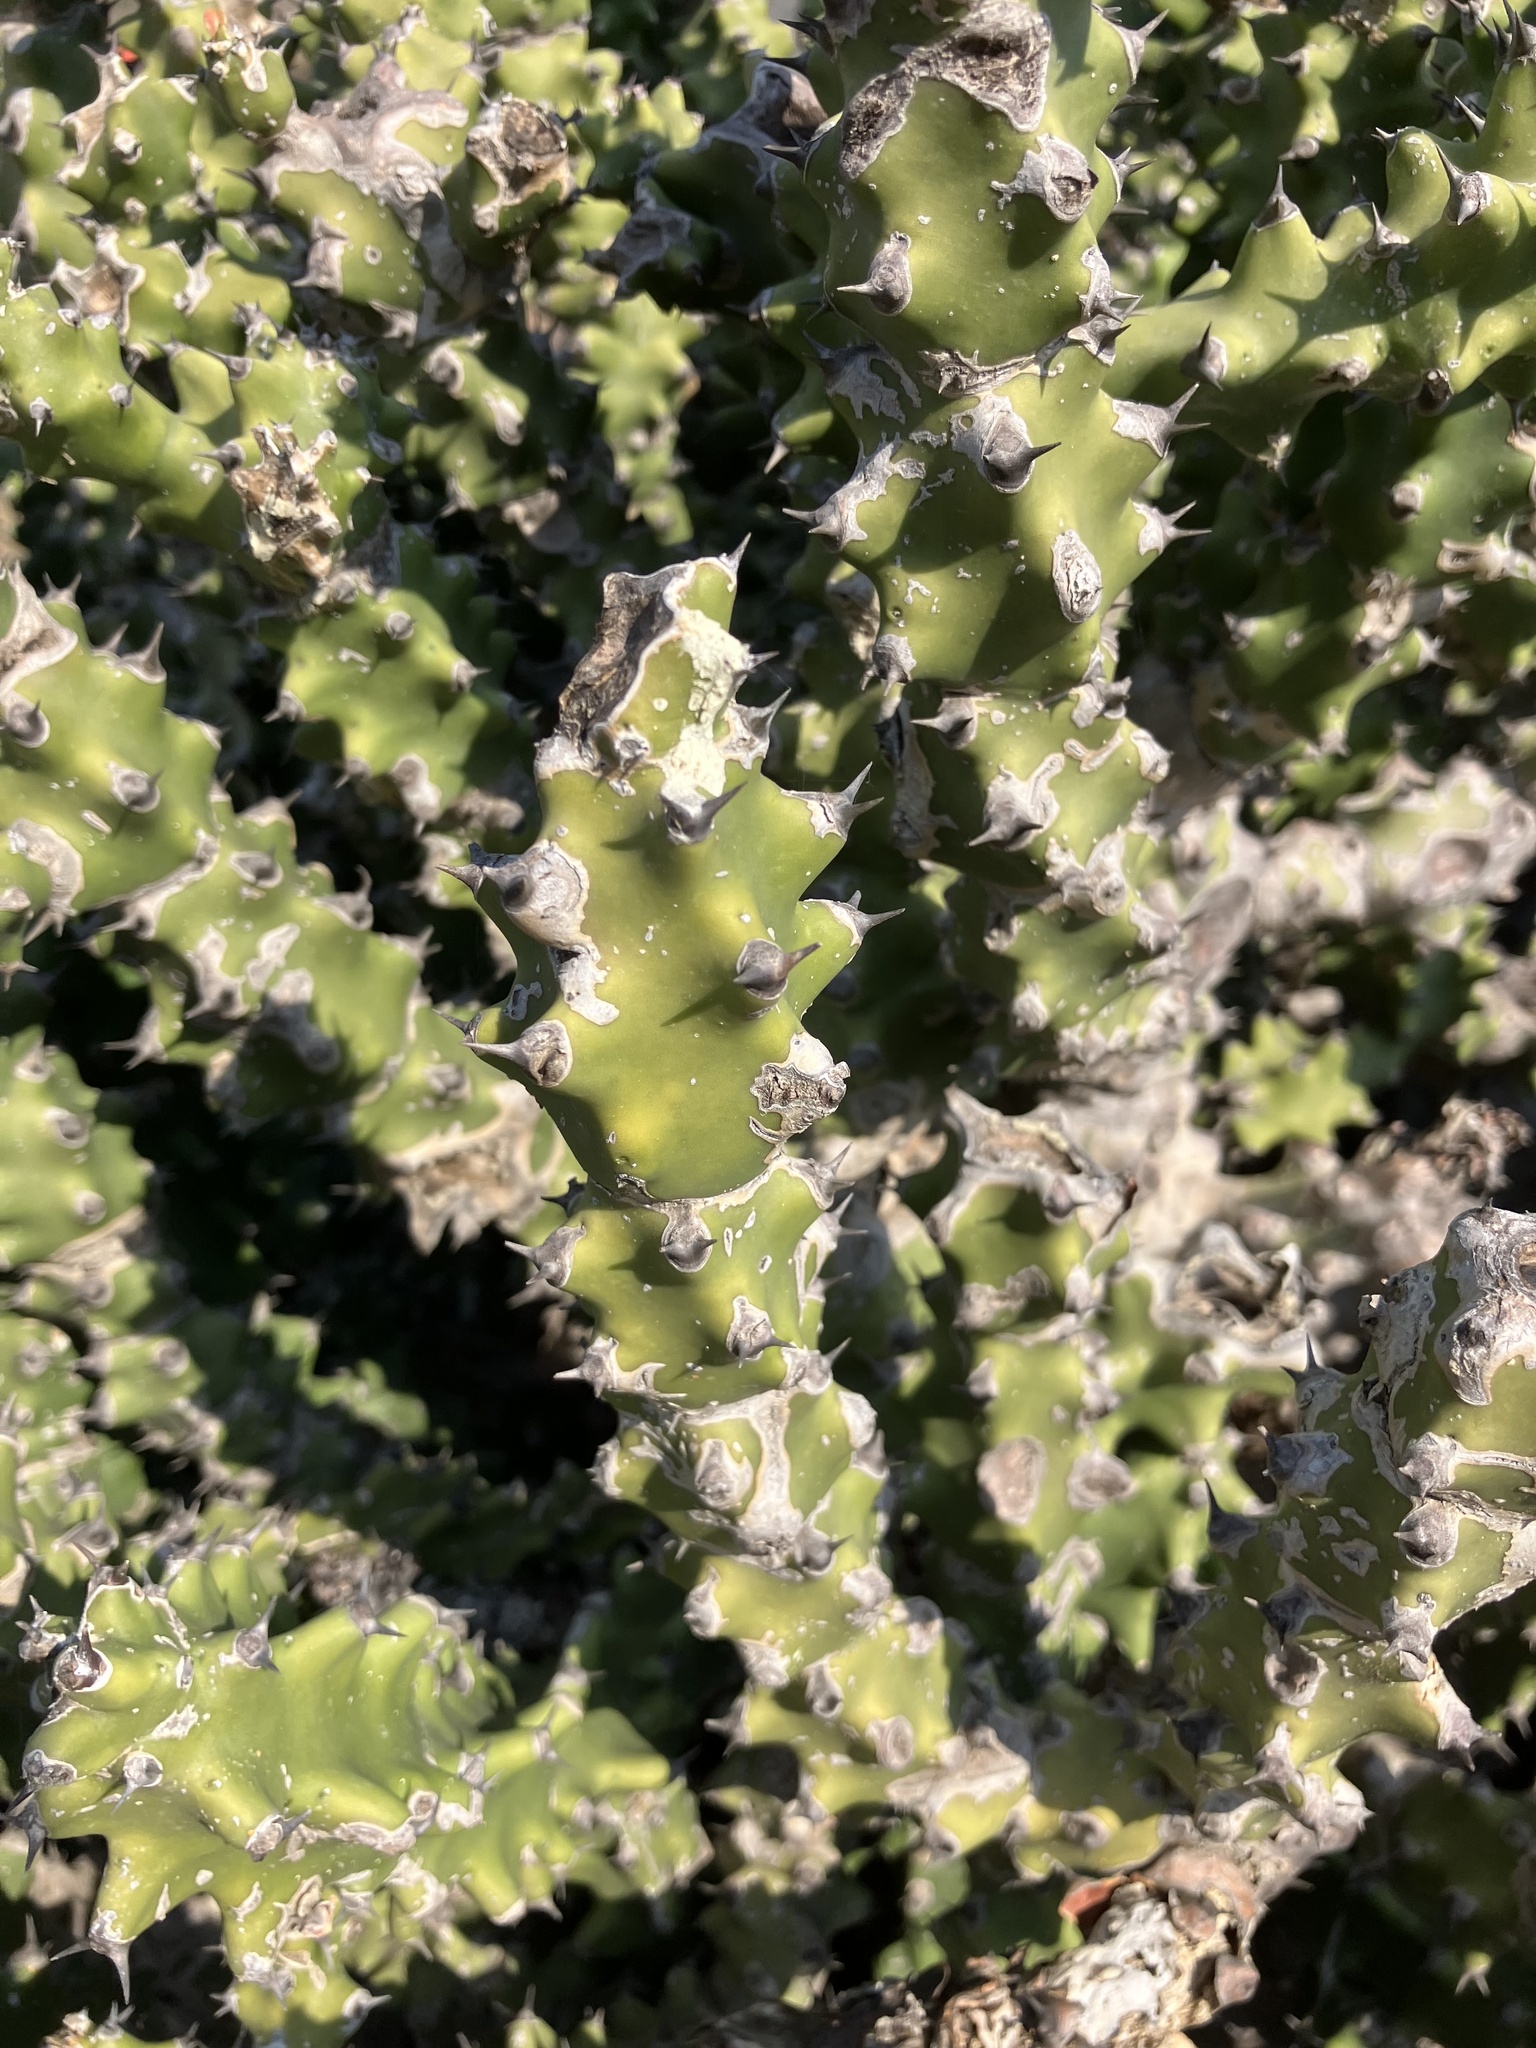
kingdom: Plantae
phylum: Tracheophyta
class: Magnoliopsida
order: Malpighiales
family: Euphorbiaceae
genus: Euphorbia
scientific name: Euphorbia neriifolia
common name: Hedge euphorbia
